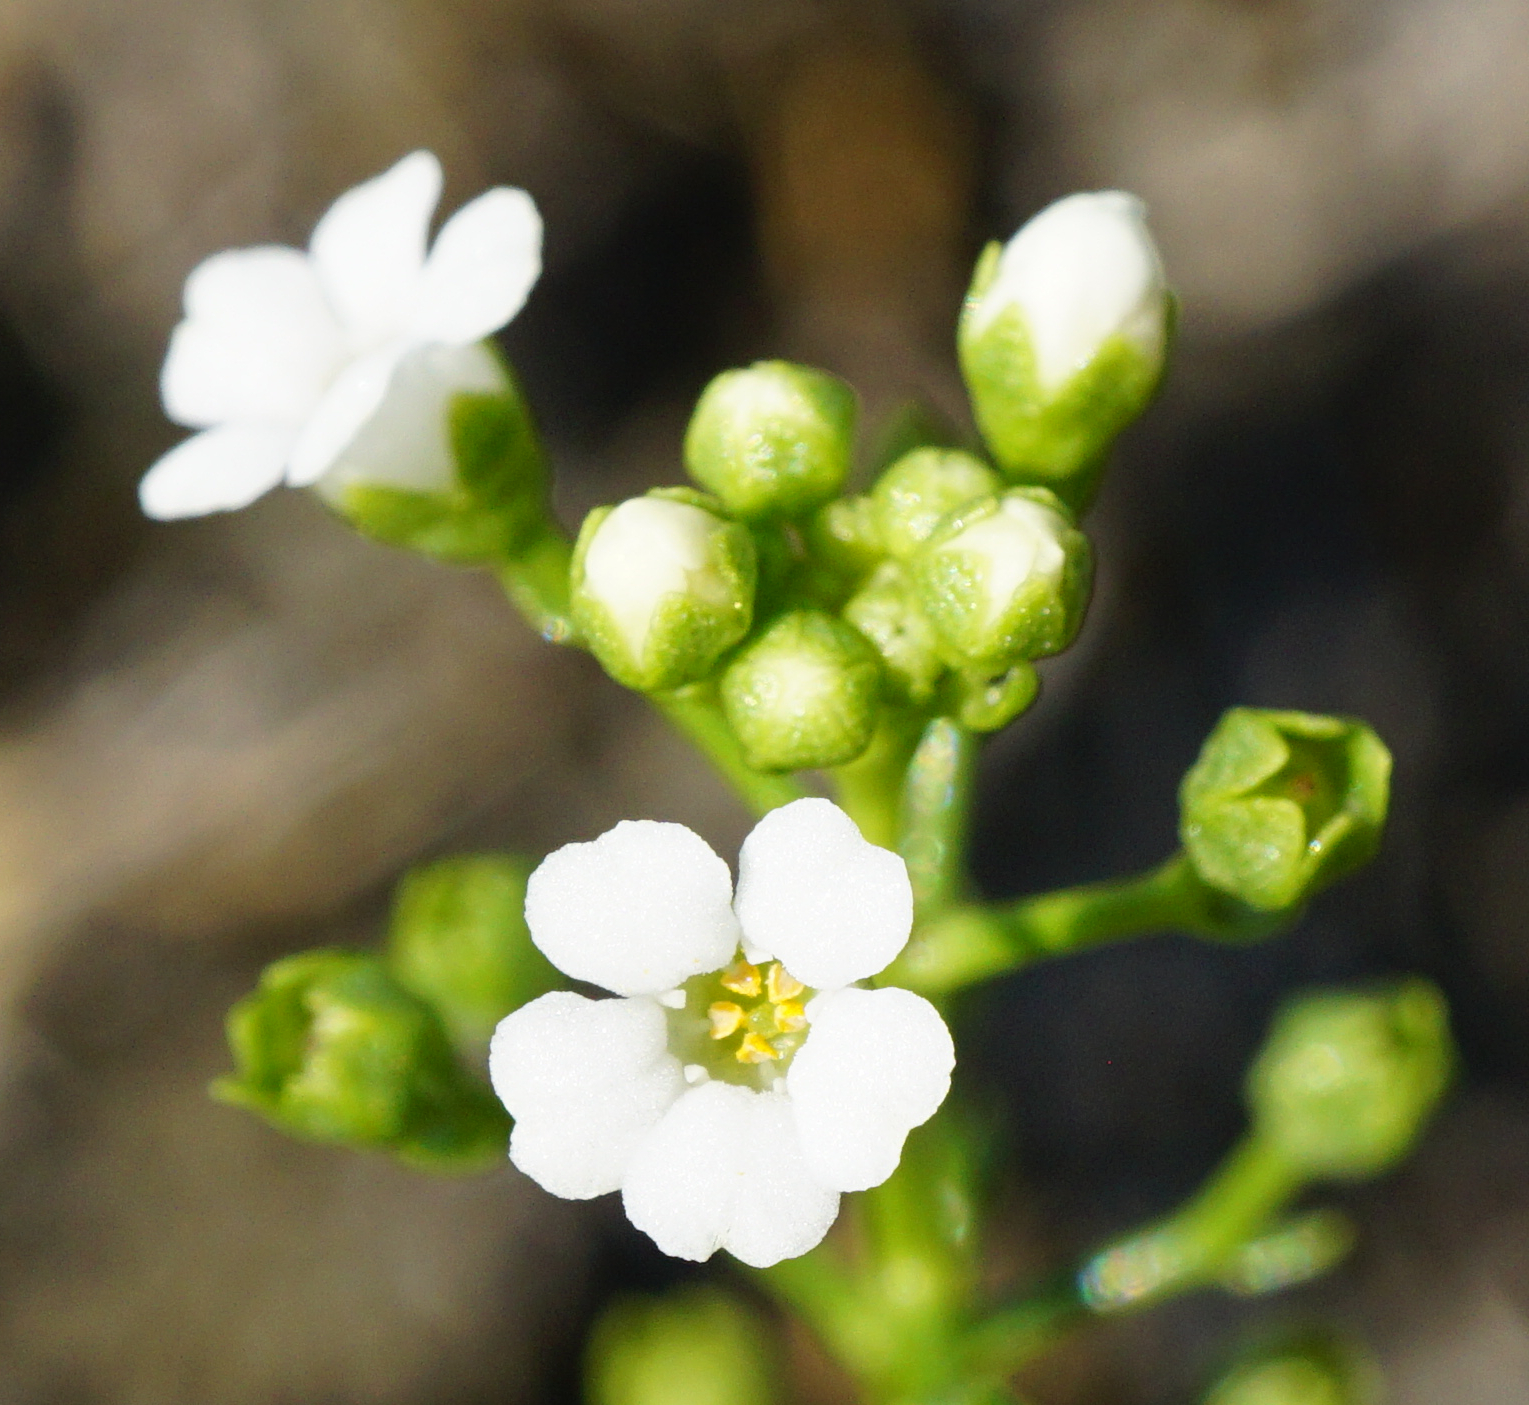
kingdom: Plantae
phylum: Tracheophyta
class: Magnoliopsida
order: Ericales
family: Primulaceae
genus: Samolus
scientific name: Samolus valerandi
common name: Brookweed
